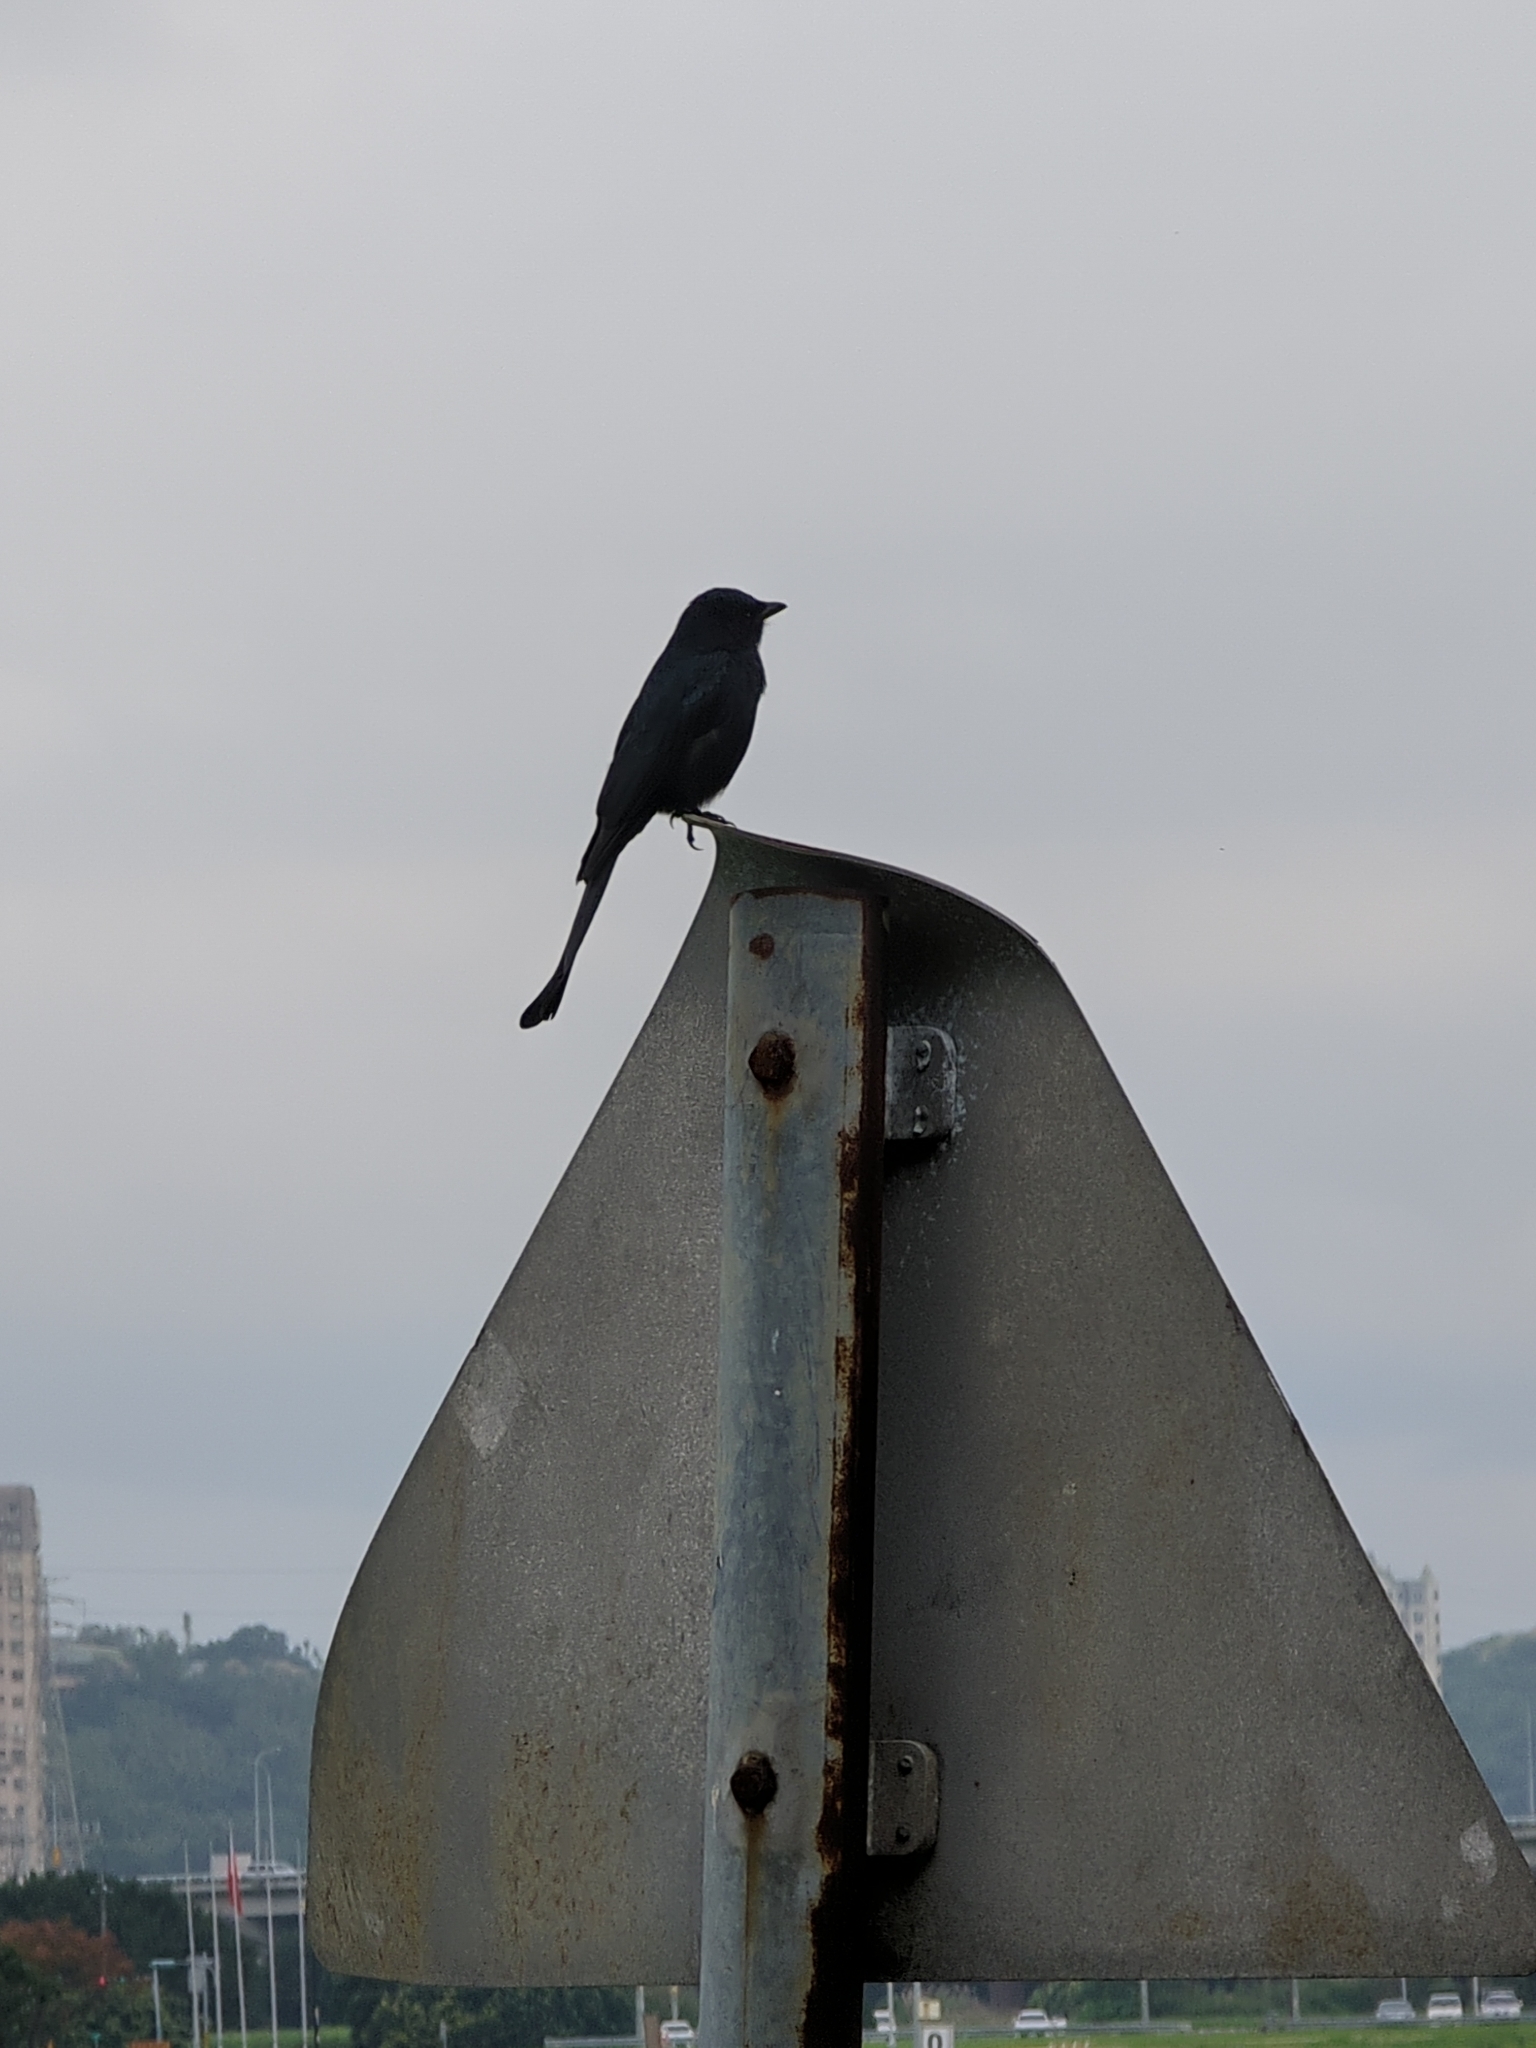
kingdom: Animalia
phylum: Chordata
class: Aves
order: Passeriformes
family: Dicruridae
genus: Dicrurus
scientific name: Dicrurus macrocercus
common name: Black drongo
